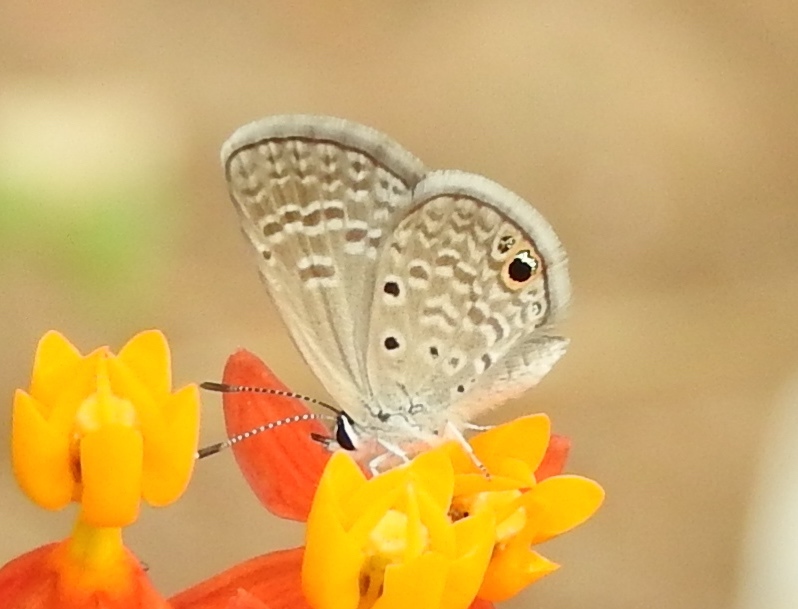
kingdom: Animalia
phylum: Arthropoda
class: Insecta
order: Lepidoptera
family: Lycaenidae
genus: Echinargus
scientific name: Echinargus isola
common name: Reakirt's blue
